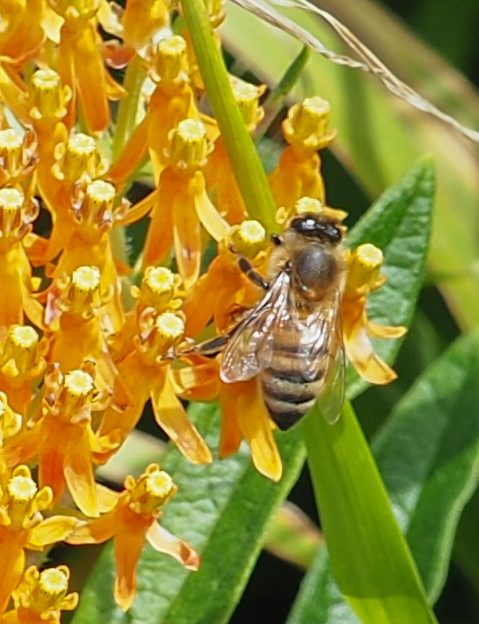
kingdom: Animalia
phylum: Arthropoda
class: Insecta
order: Hymenoptera
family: Apidae
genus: Apis
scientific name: Apis mellifera
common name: Honey bee
